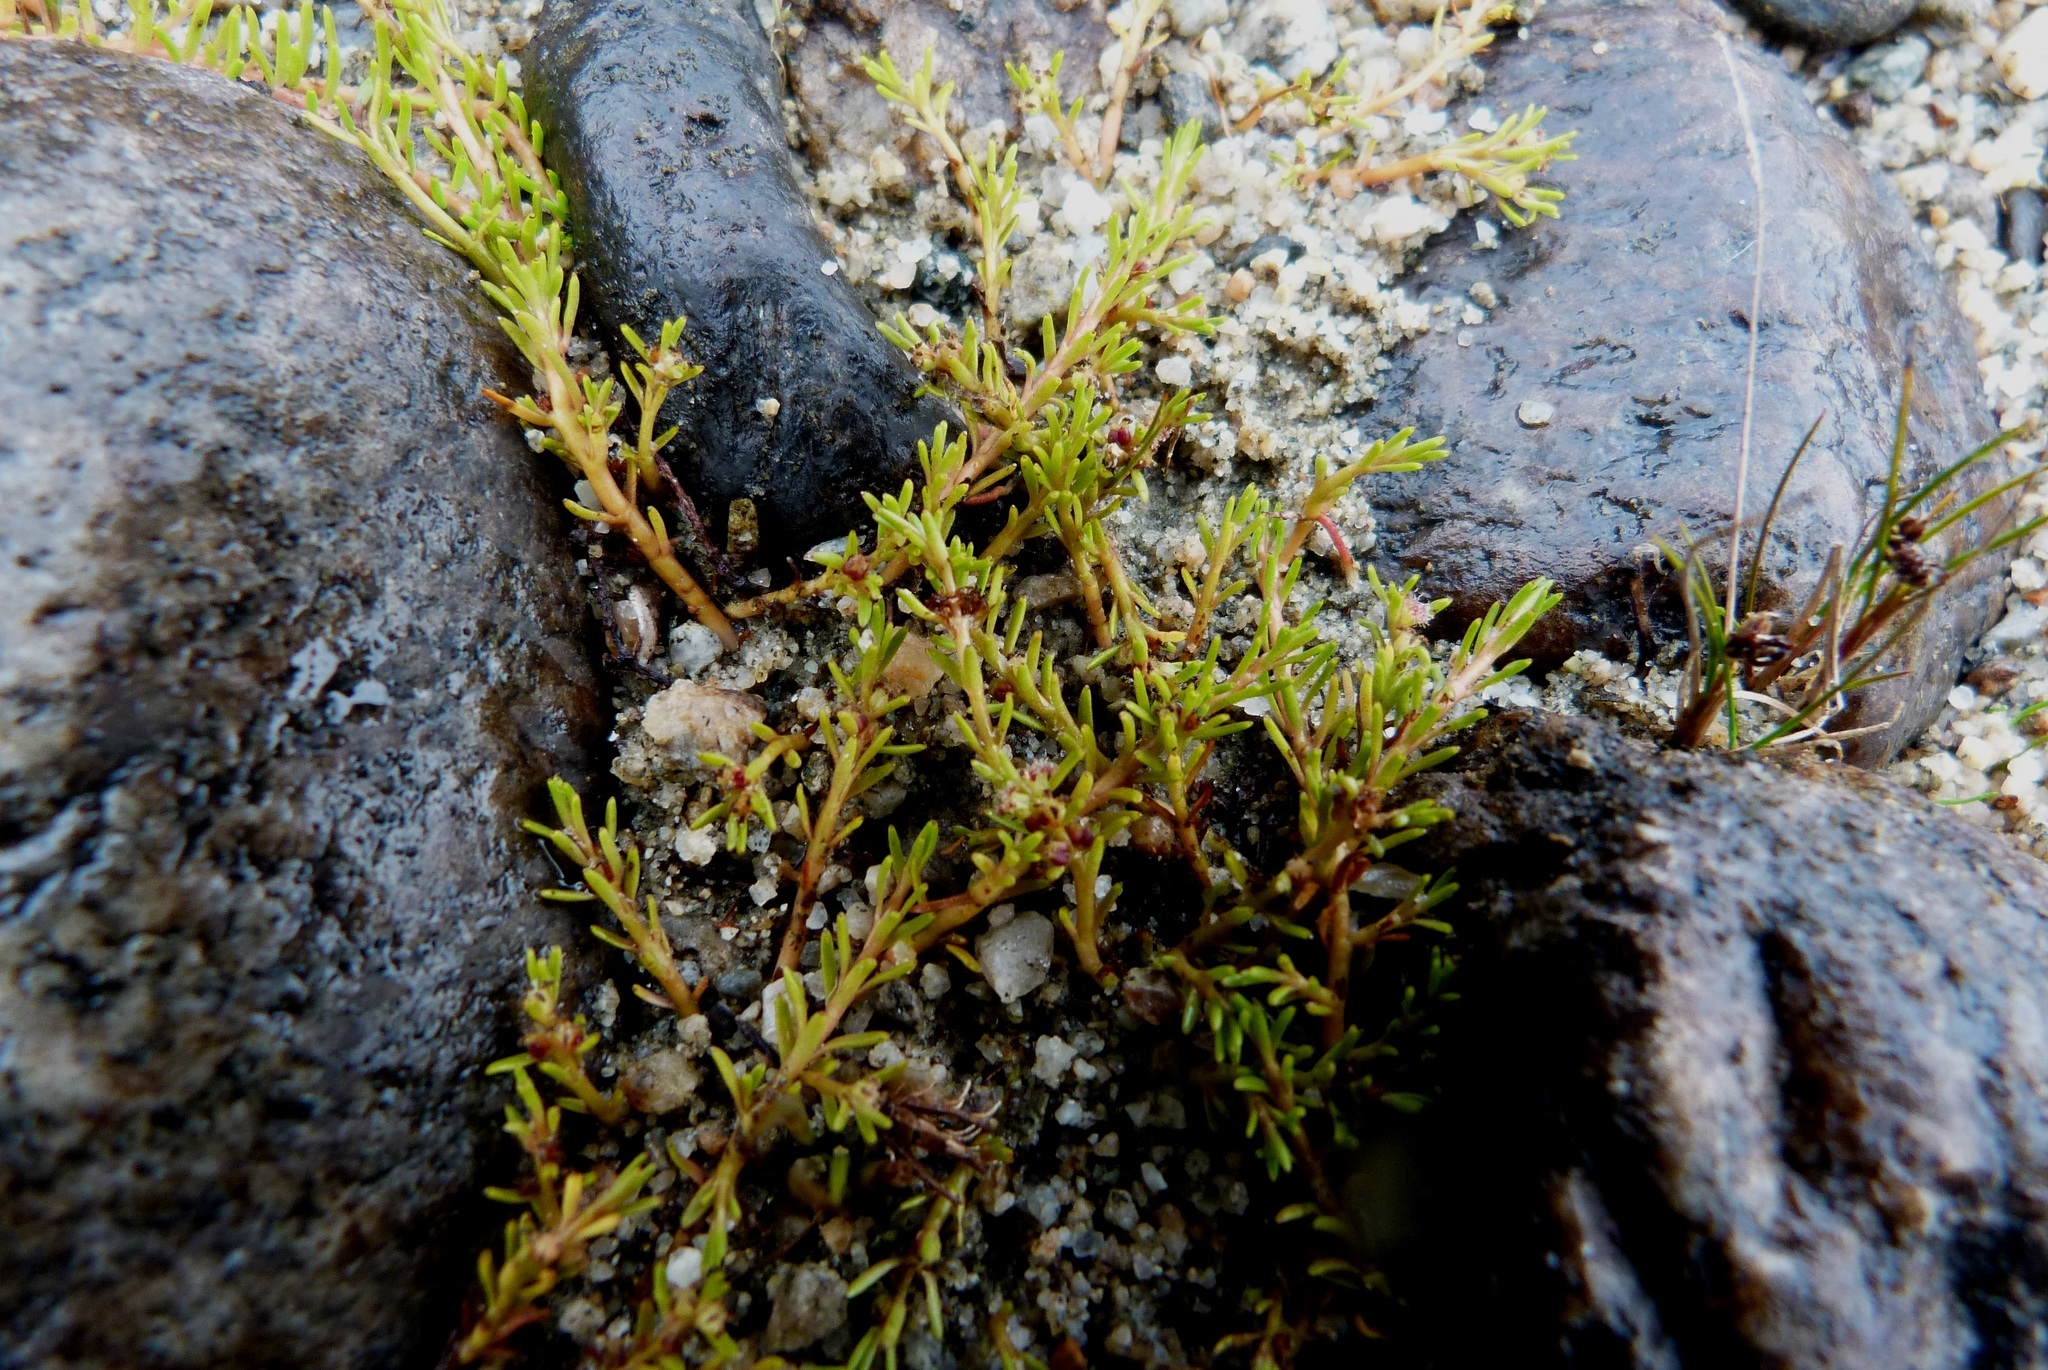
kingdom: Plantae
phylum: Tracheophyta
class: Magnoliopsida
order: Saxifragales
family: Haloragaceae
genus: Myriophyllum
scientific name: Myriophyllum votschii
